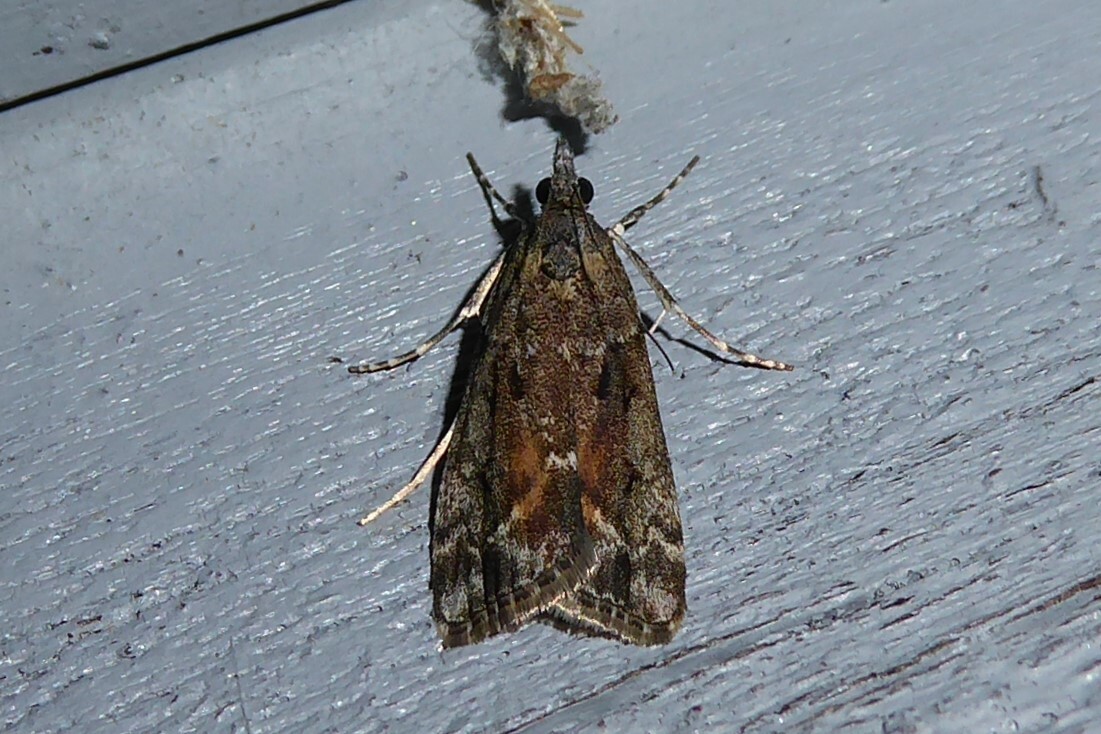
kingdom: Animalia
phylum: Arthropoda
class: Insecta
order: Lepidoptera
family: Crambidae
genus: Eudonia
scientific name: Eudonia submarginalis
